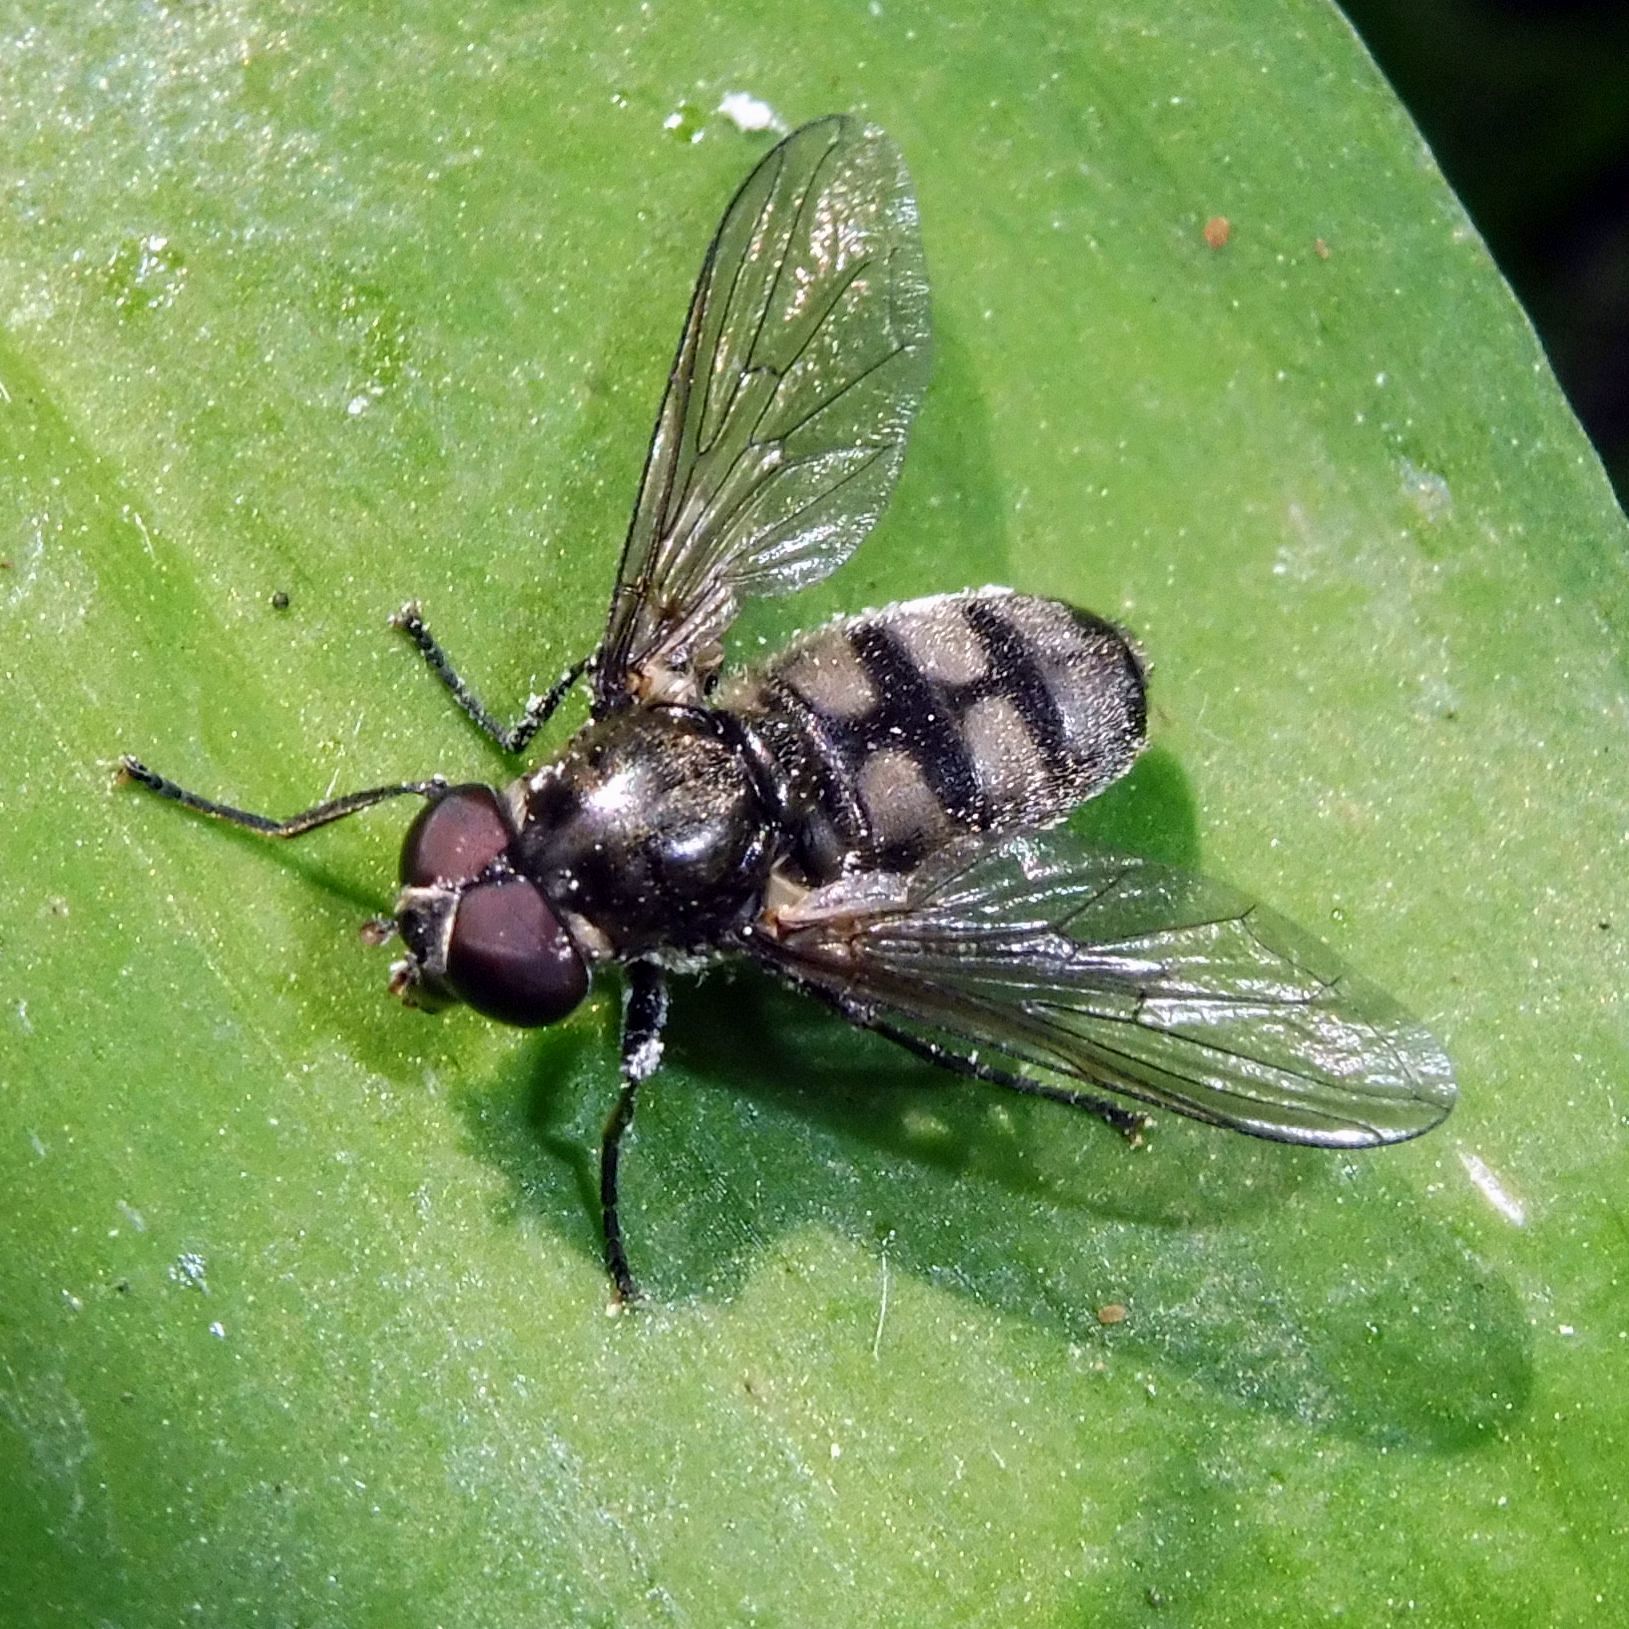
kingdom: Animalia
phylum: Arthropoda
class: Insecta
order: Diptera
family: Syrphidae
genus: Portevinia
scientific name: Portevinia maculata
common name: Ramson's hoverfly
